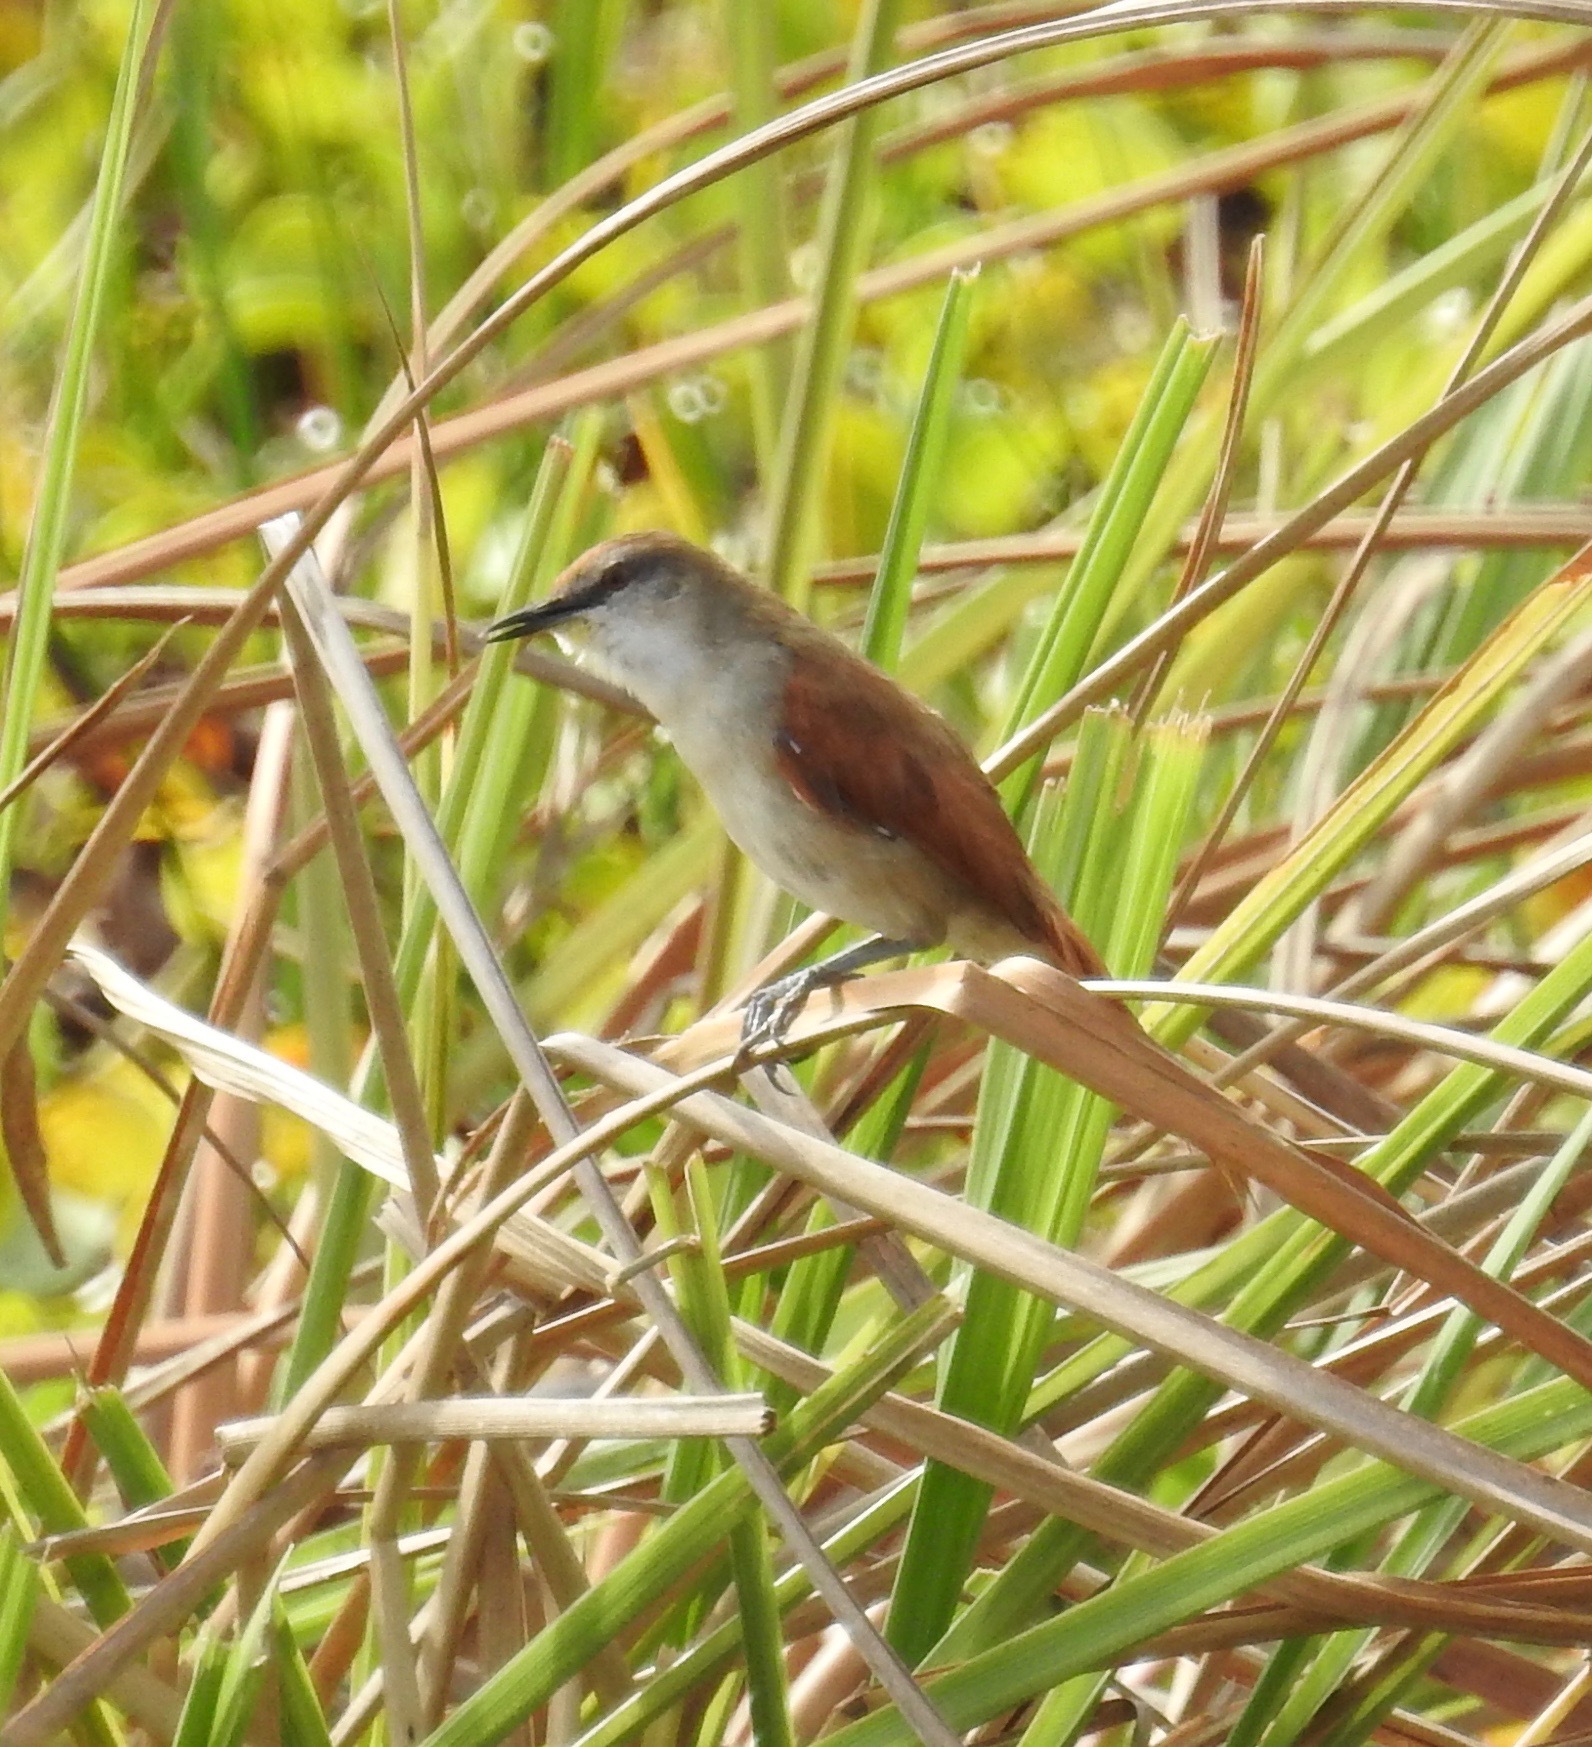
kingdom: Animalia
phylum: Chordata
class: Aves
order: Passeriformes
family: Furnariidae
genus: Certhiaxis
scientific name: Certhiaxis cinnamomeus
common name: Yellow-chinned spinetail
